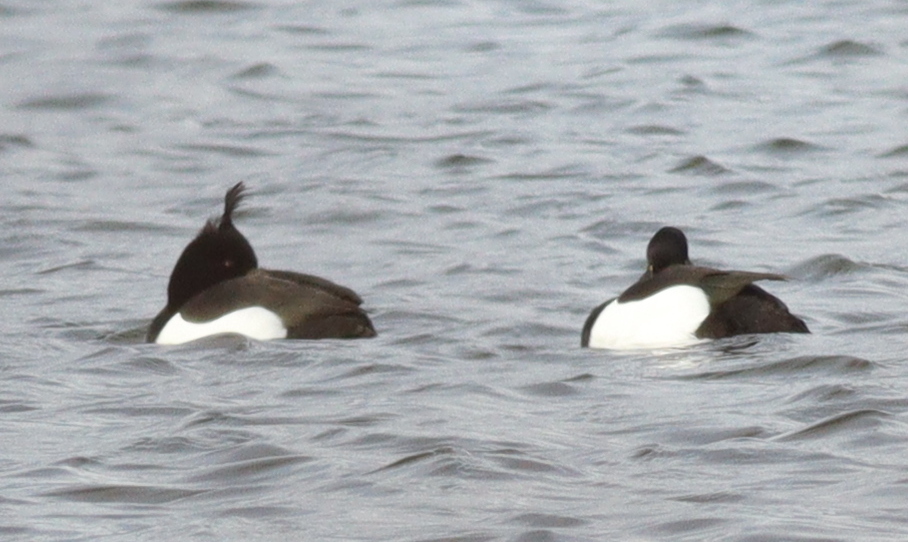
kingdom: Animalia
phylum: Chordata
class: Aves
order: Anseriformes
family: Anatidae
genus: Aythya
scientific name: Aythya fuligula
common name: Tufted duck
